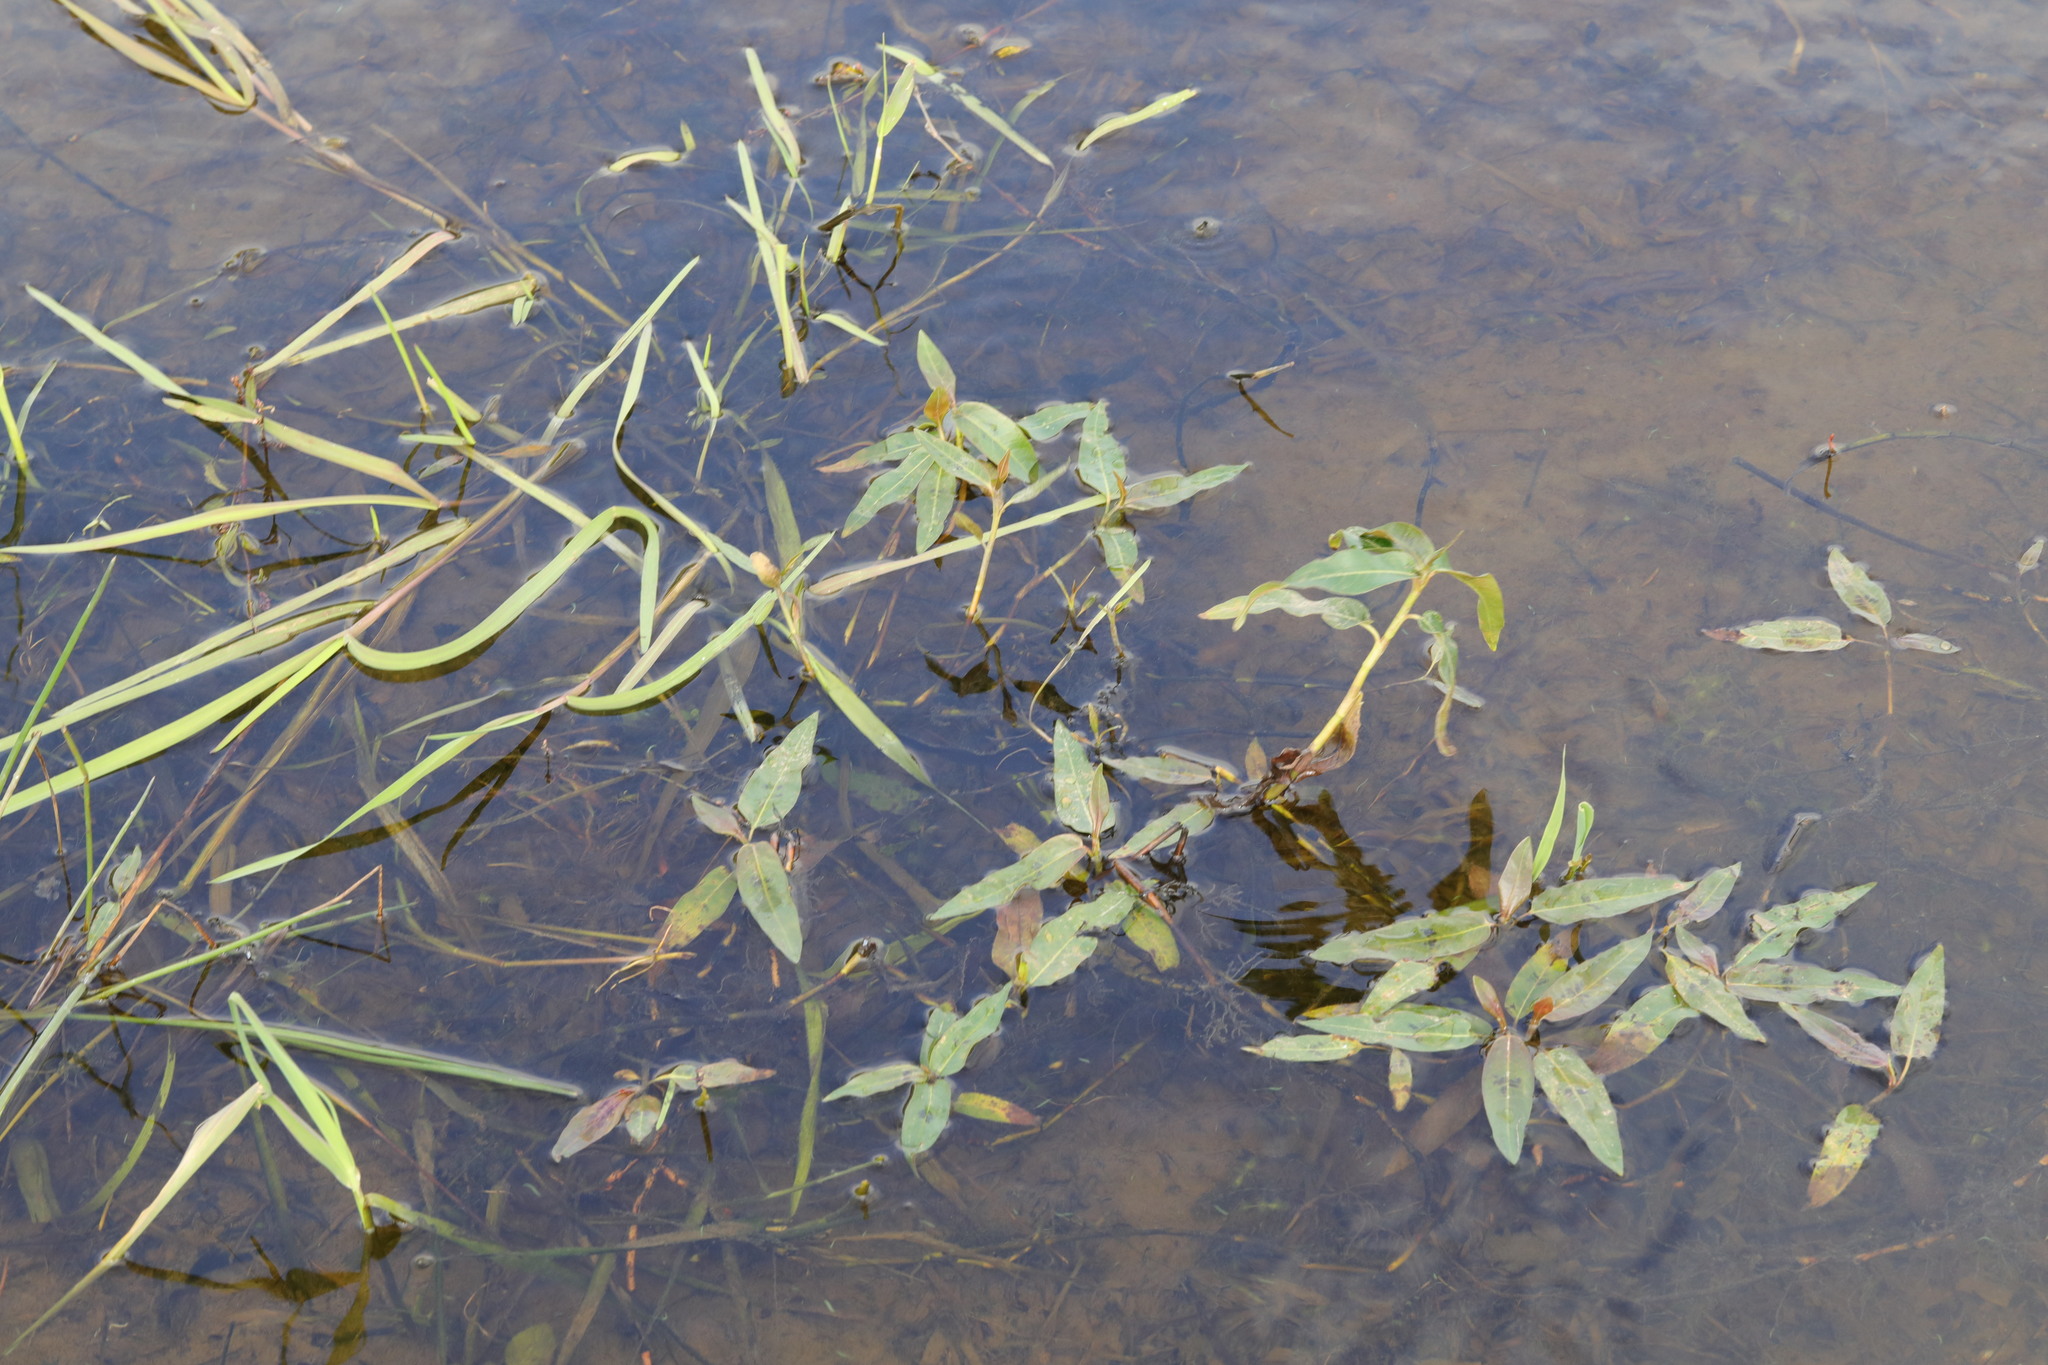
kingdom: Plantae
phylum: Tracheophyta
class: Magnoliopsida
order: Caryophyllales
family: Polygonaceae
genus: Persicaria
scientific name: Persicaria amphibia
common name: Amphibious bistort
